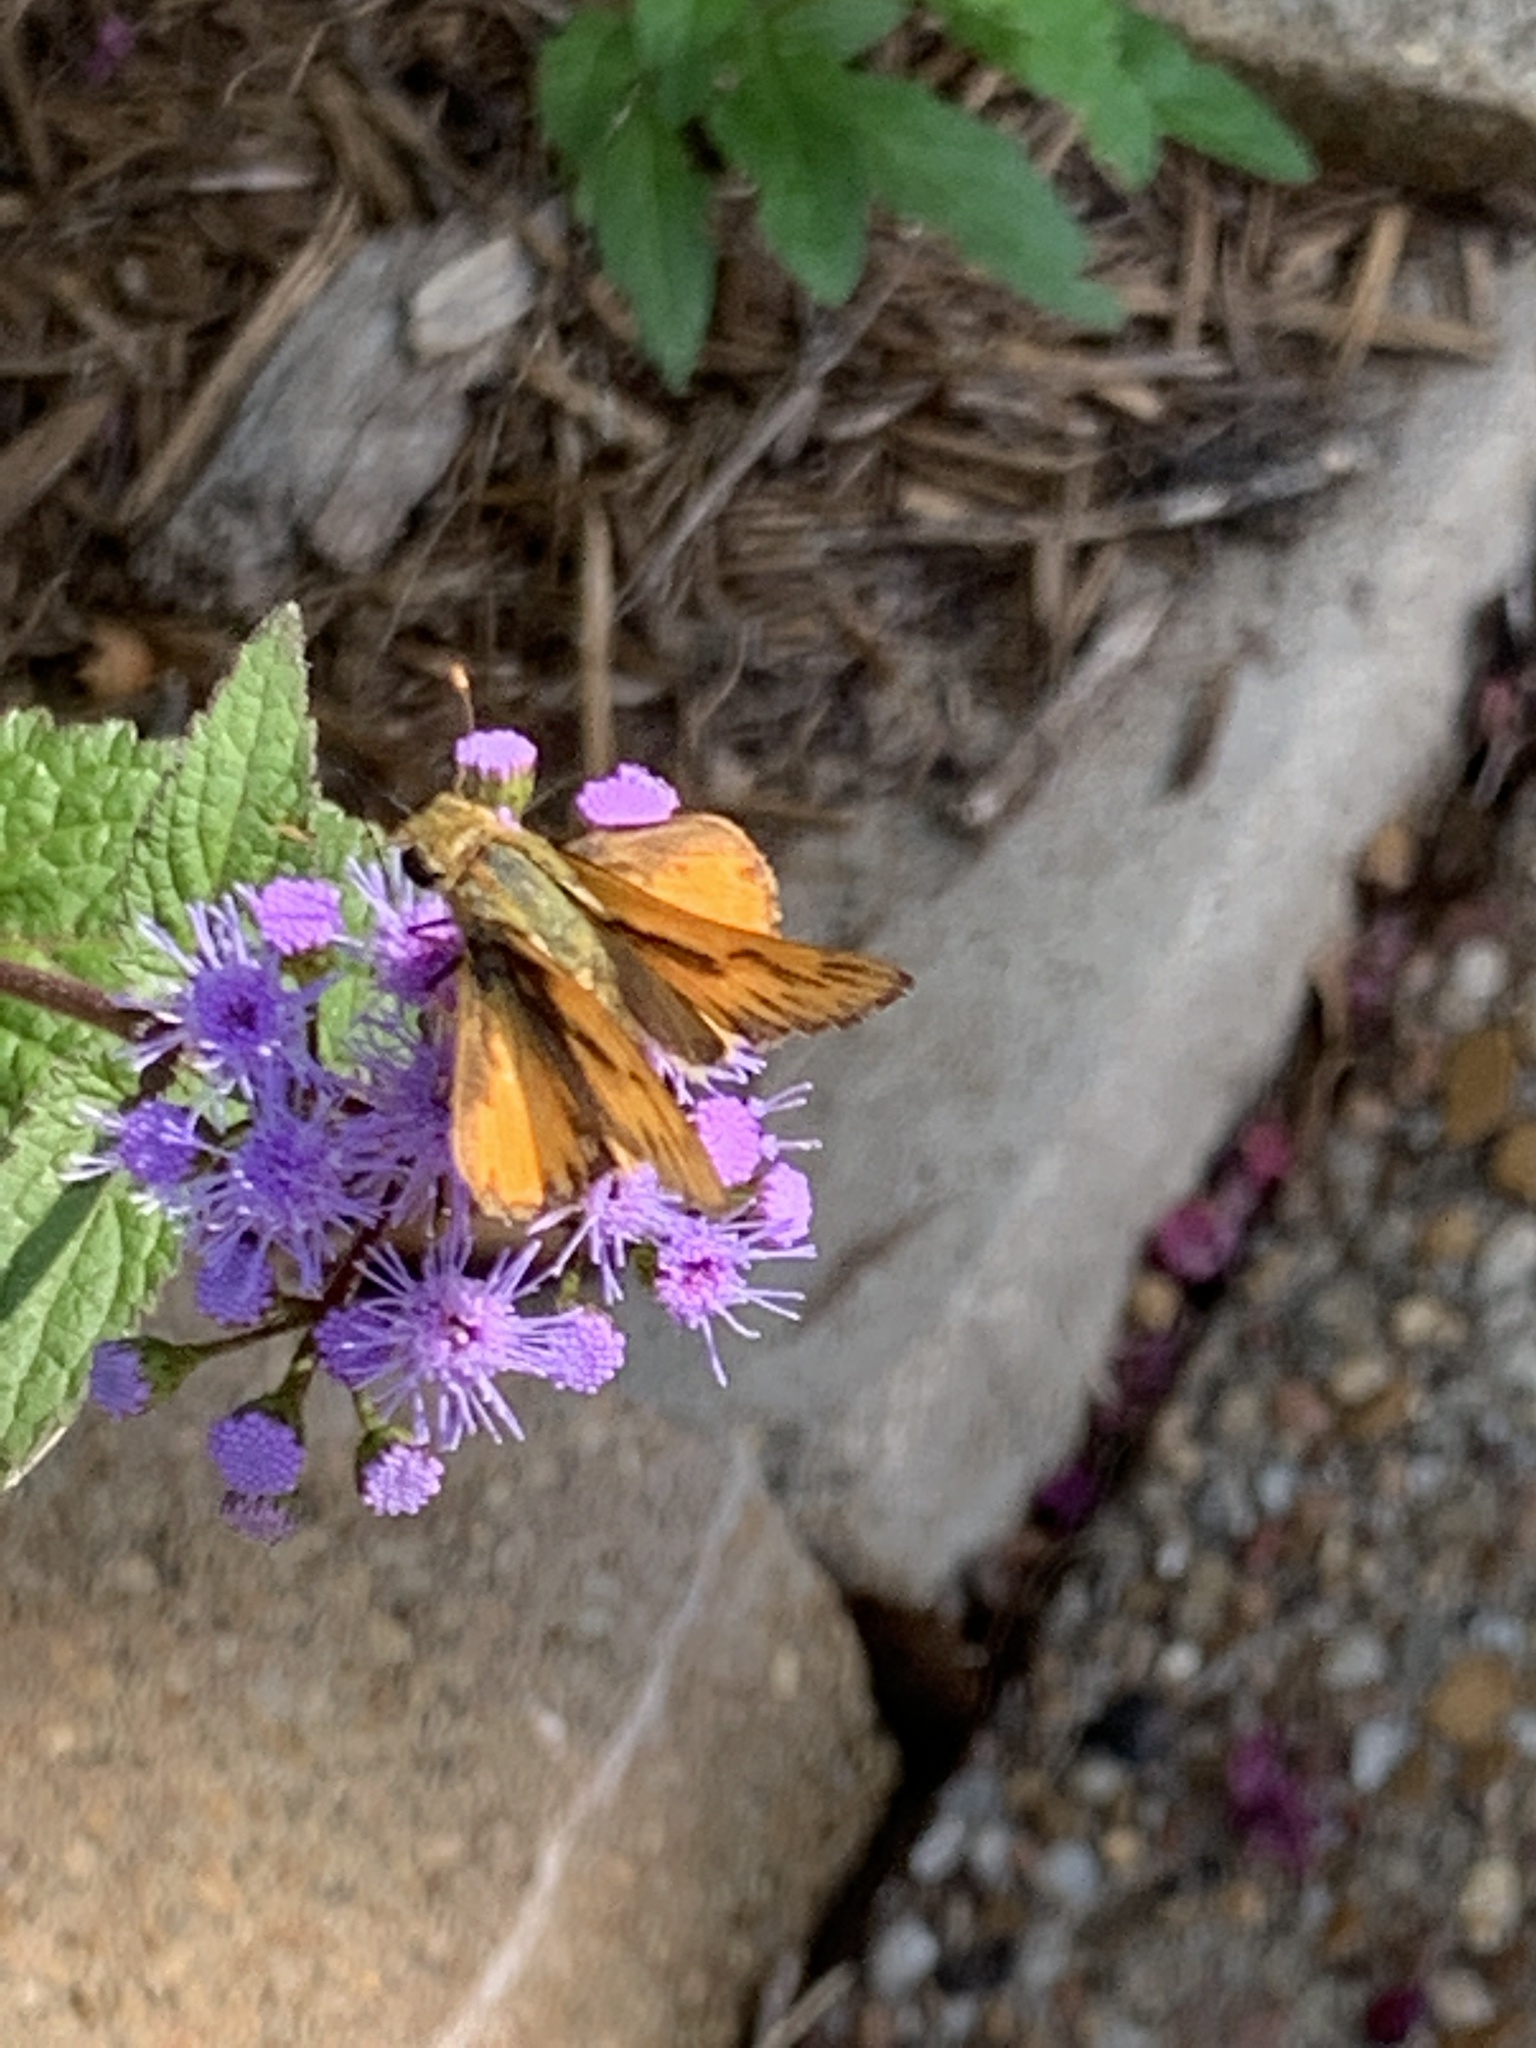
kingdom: Animalia
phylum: Arthropoda
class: Insecta
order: Lepidoptera
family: Hesperiidae
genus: Hylephila
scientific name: Hylephila phyleus
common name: Fiery skipper
